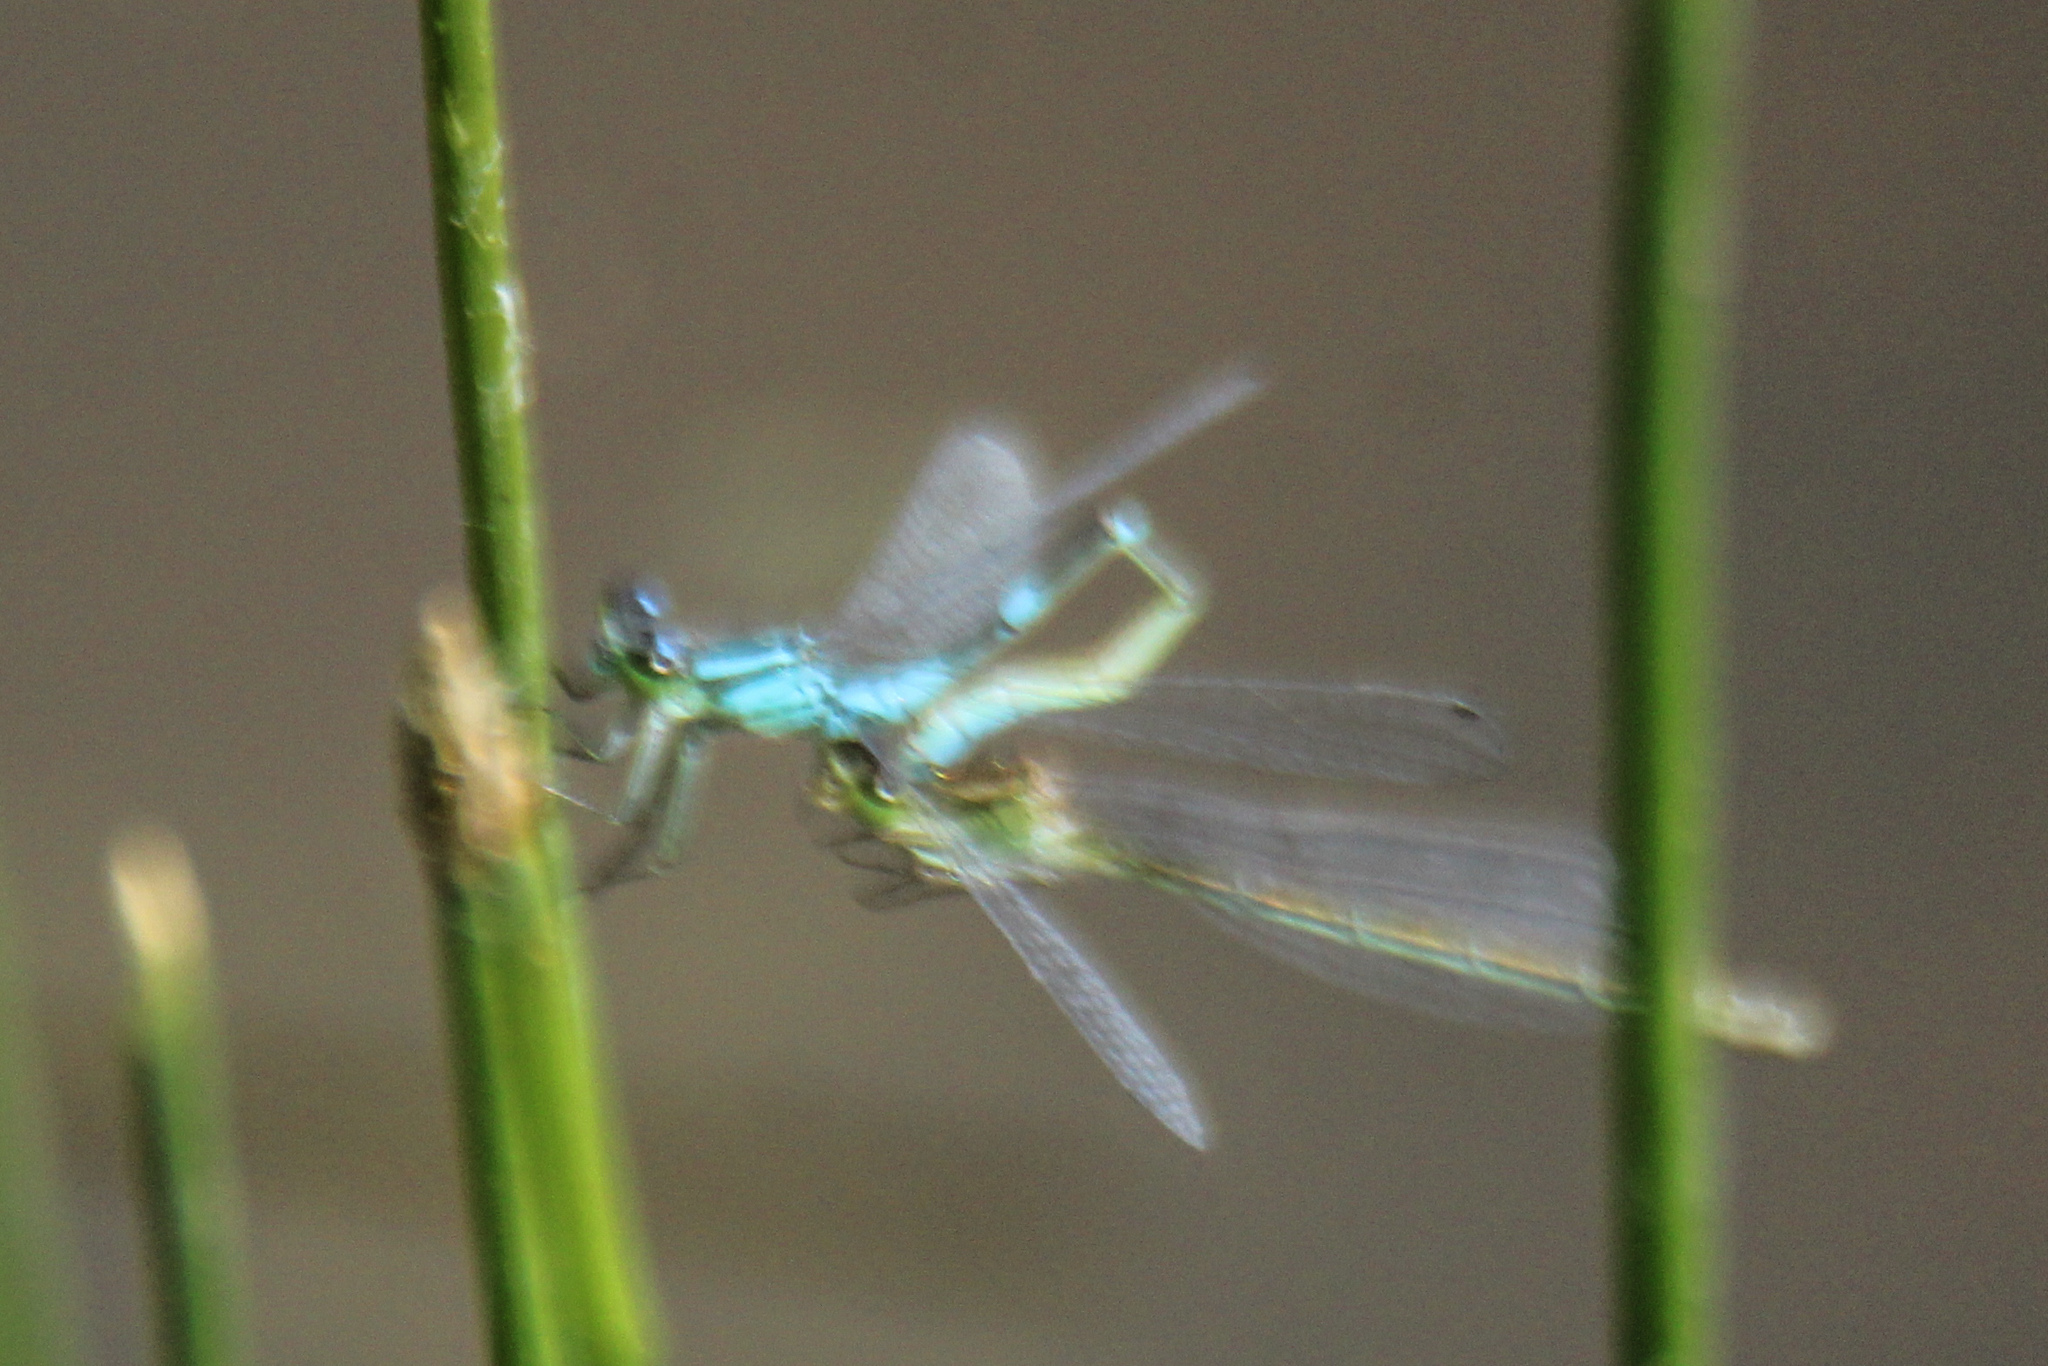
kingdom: Animalia
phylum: Arthropoda
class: Insecta
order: Odonata
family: Coenagrionidae
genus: Coenagrion
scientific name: Coenagrion lunulatum
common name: Irish damselfly
